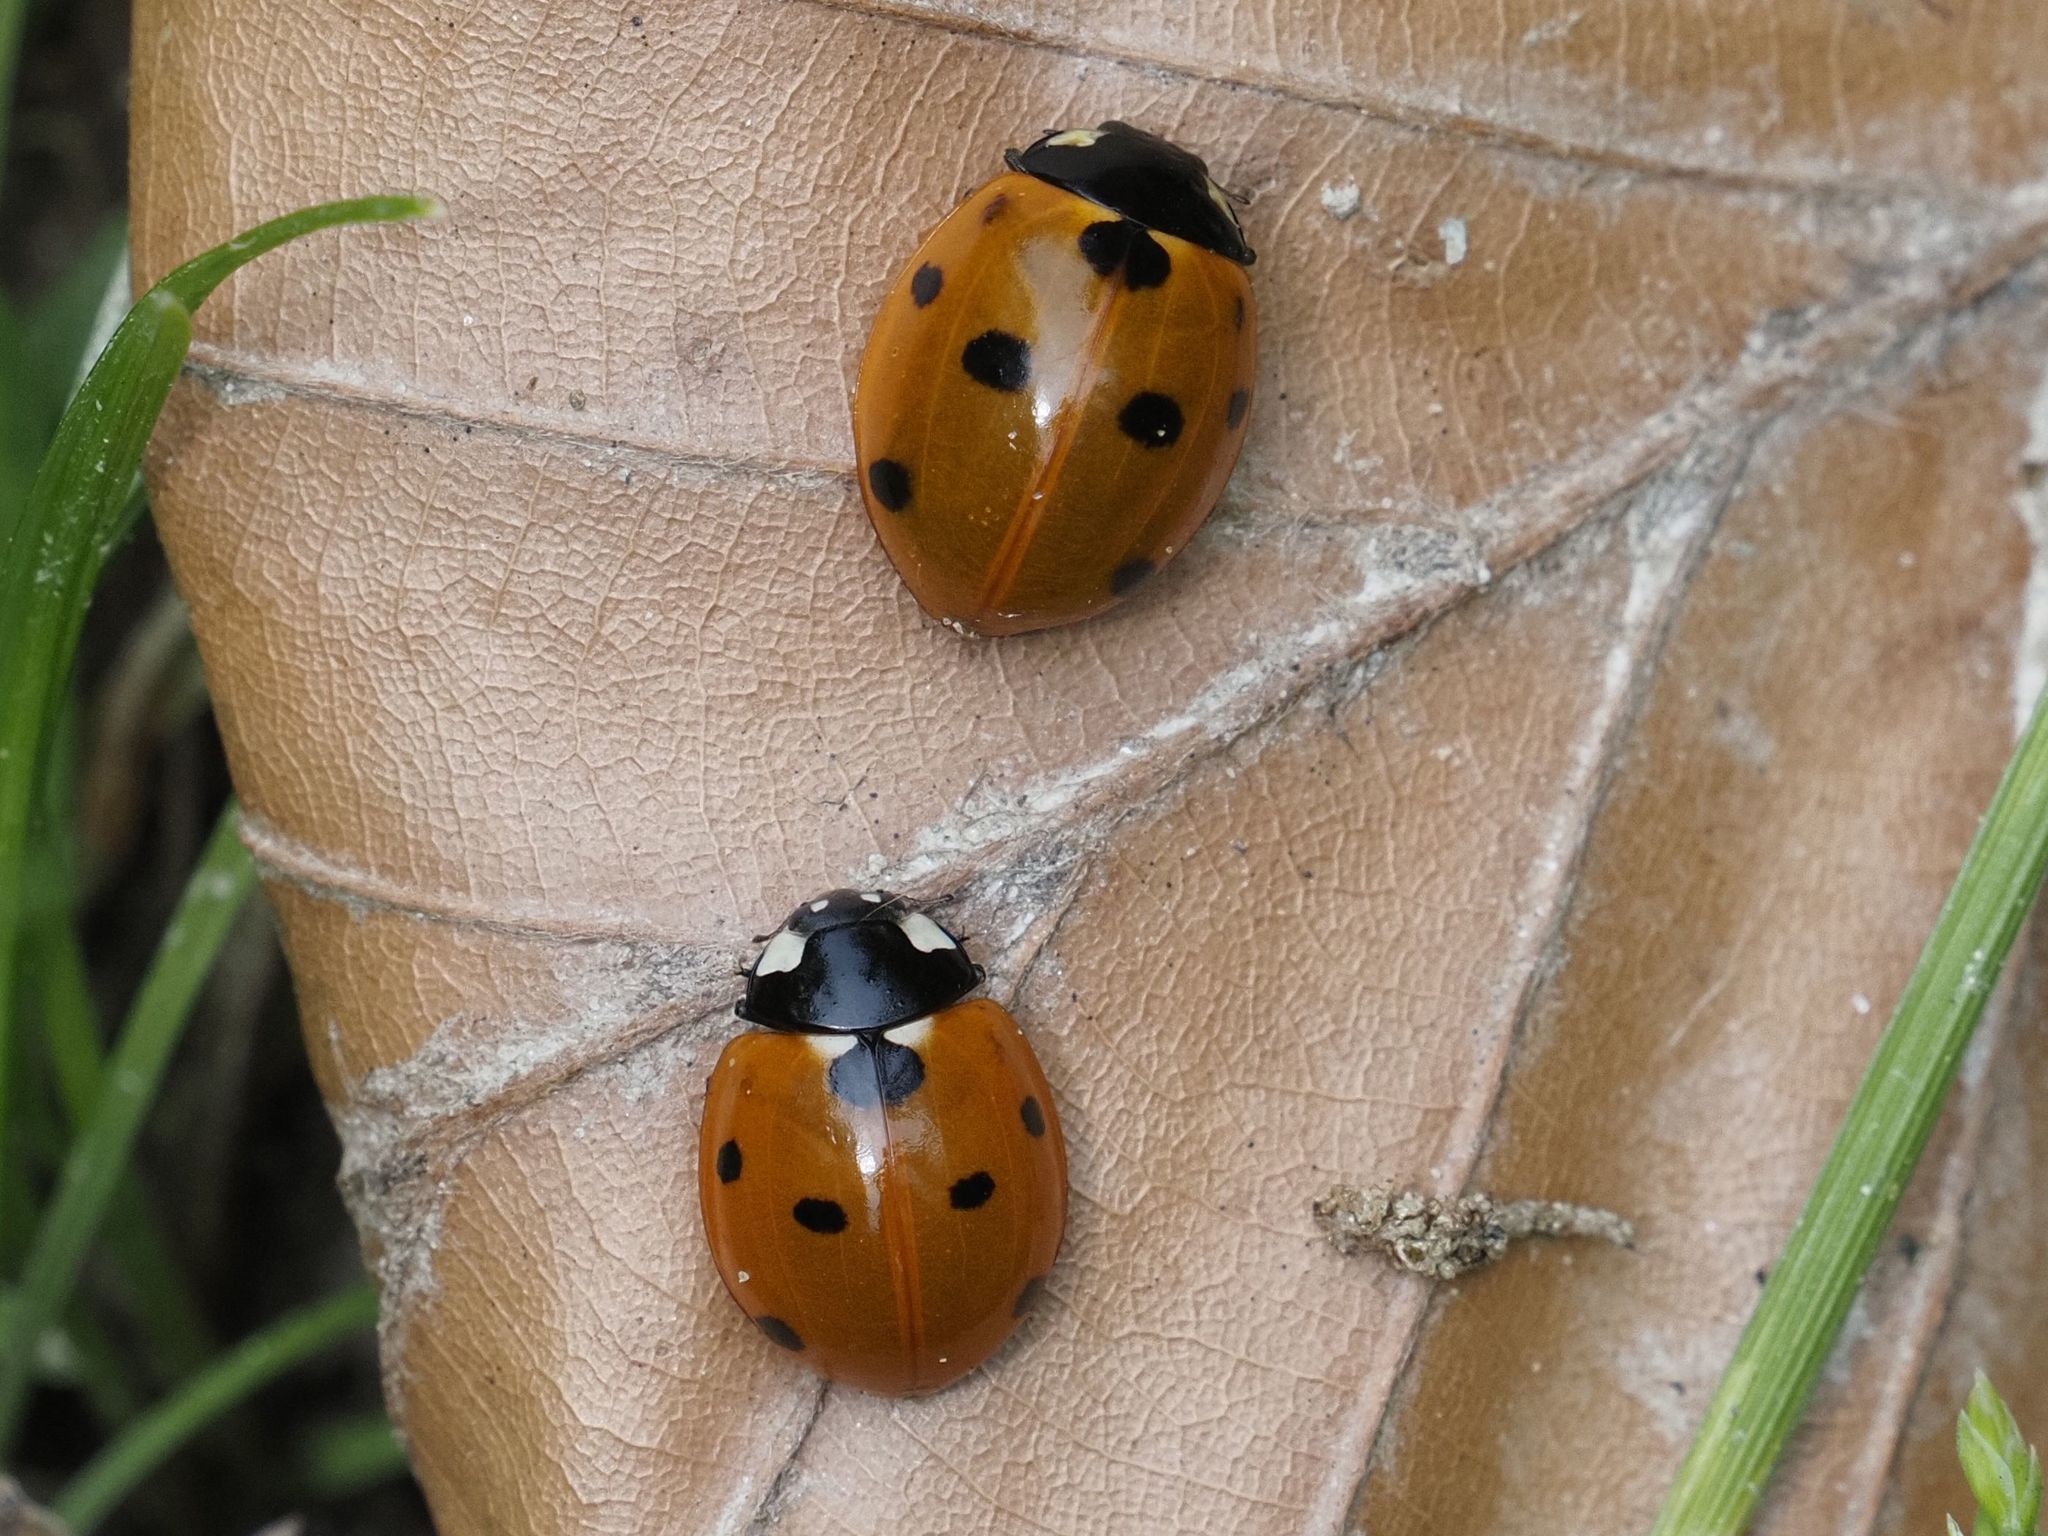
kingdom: Animalia
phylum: Arthropoda
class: Insecta
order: Coleoptera
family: Coccinellidae
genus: Coccinella
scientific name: Coccinella septempunctata
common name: Sevenspotted lady beetle
